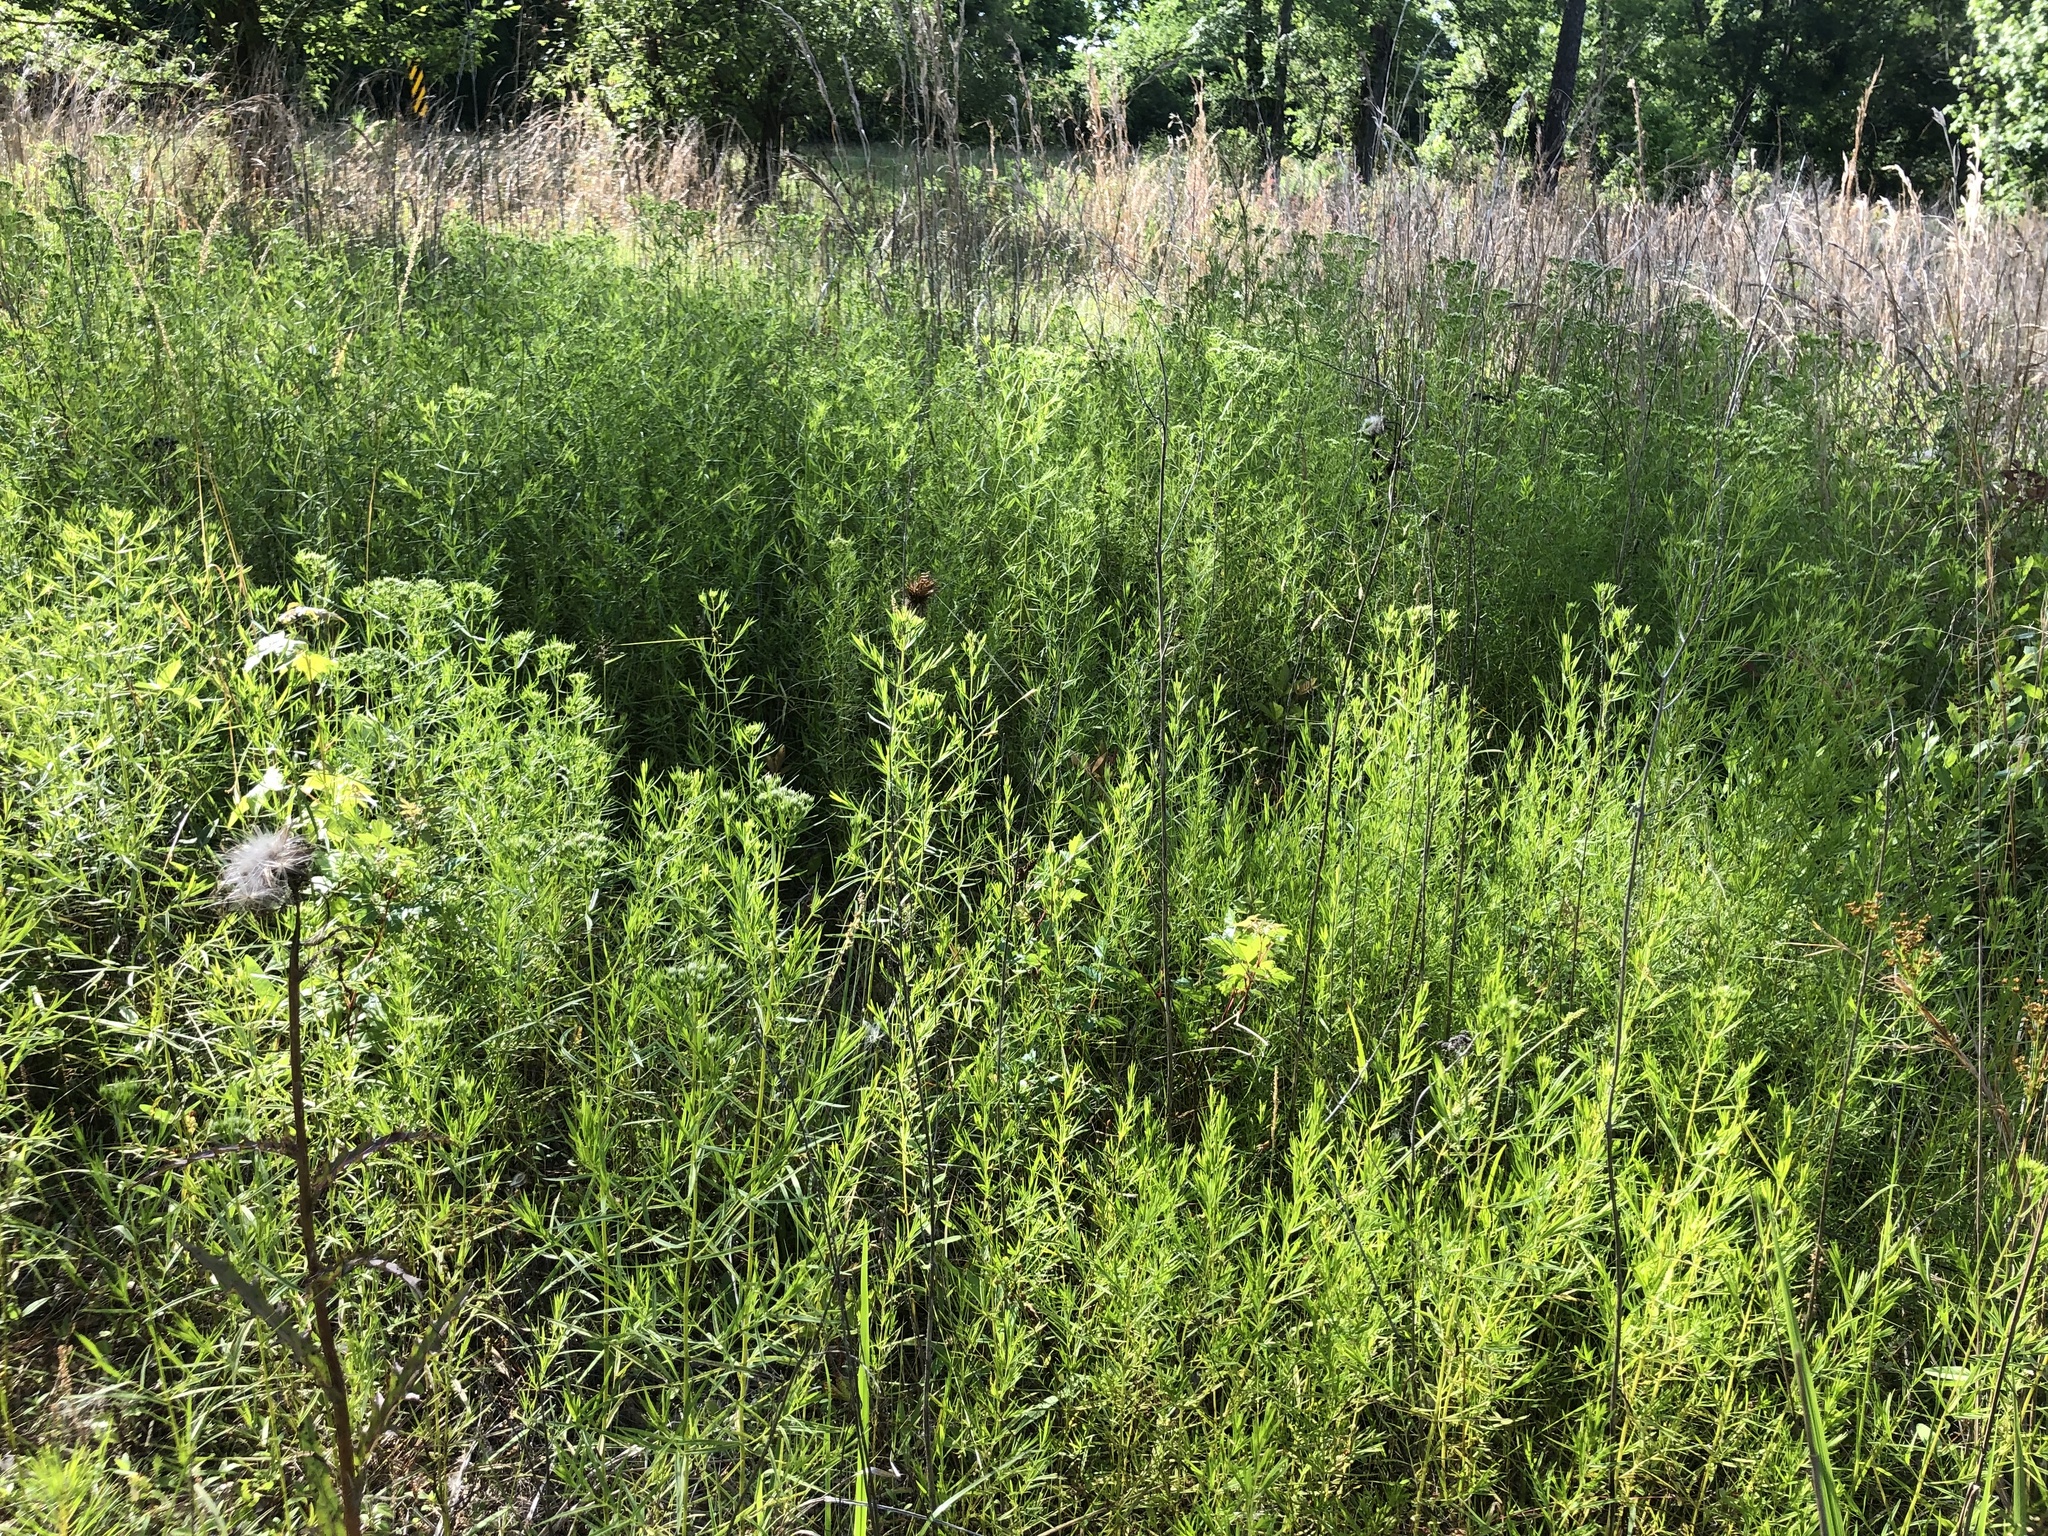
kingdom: Plantae
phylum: Tracheophyta
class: Magnoliopsida
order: Lamiales
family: Lamiaceae
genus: Pycnanthemum
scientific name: Pycnanthemum tenuifolium
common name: Narrow-leaf mountain-mint
